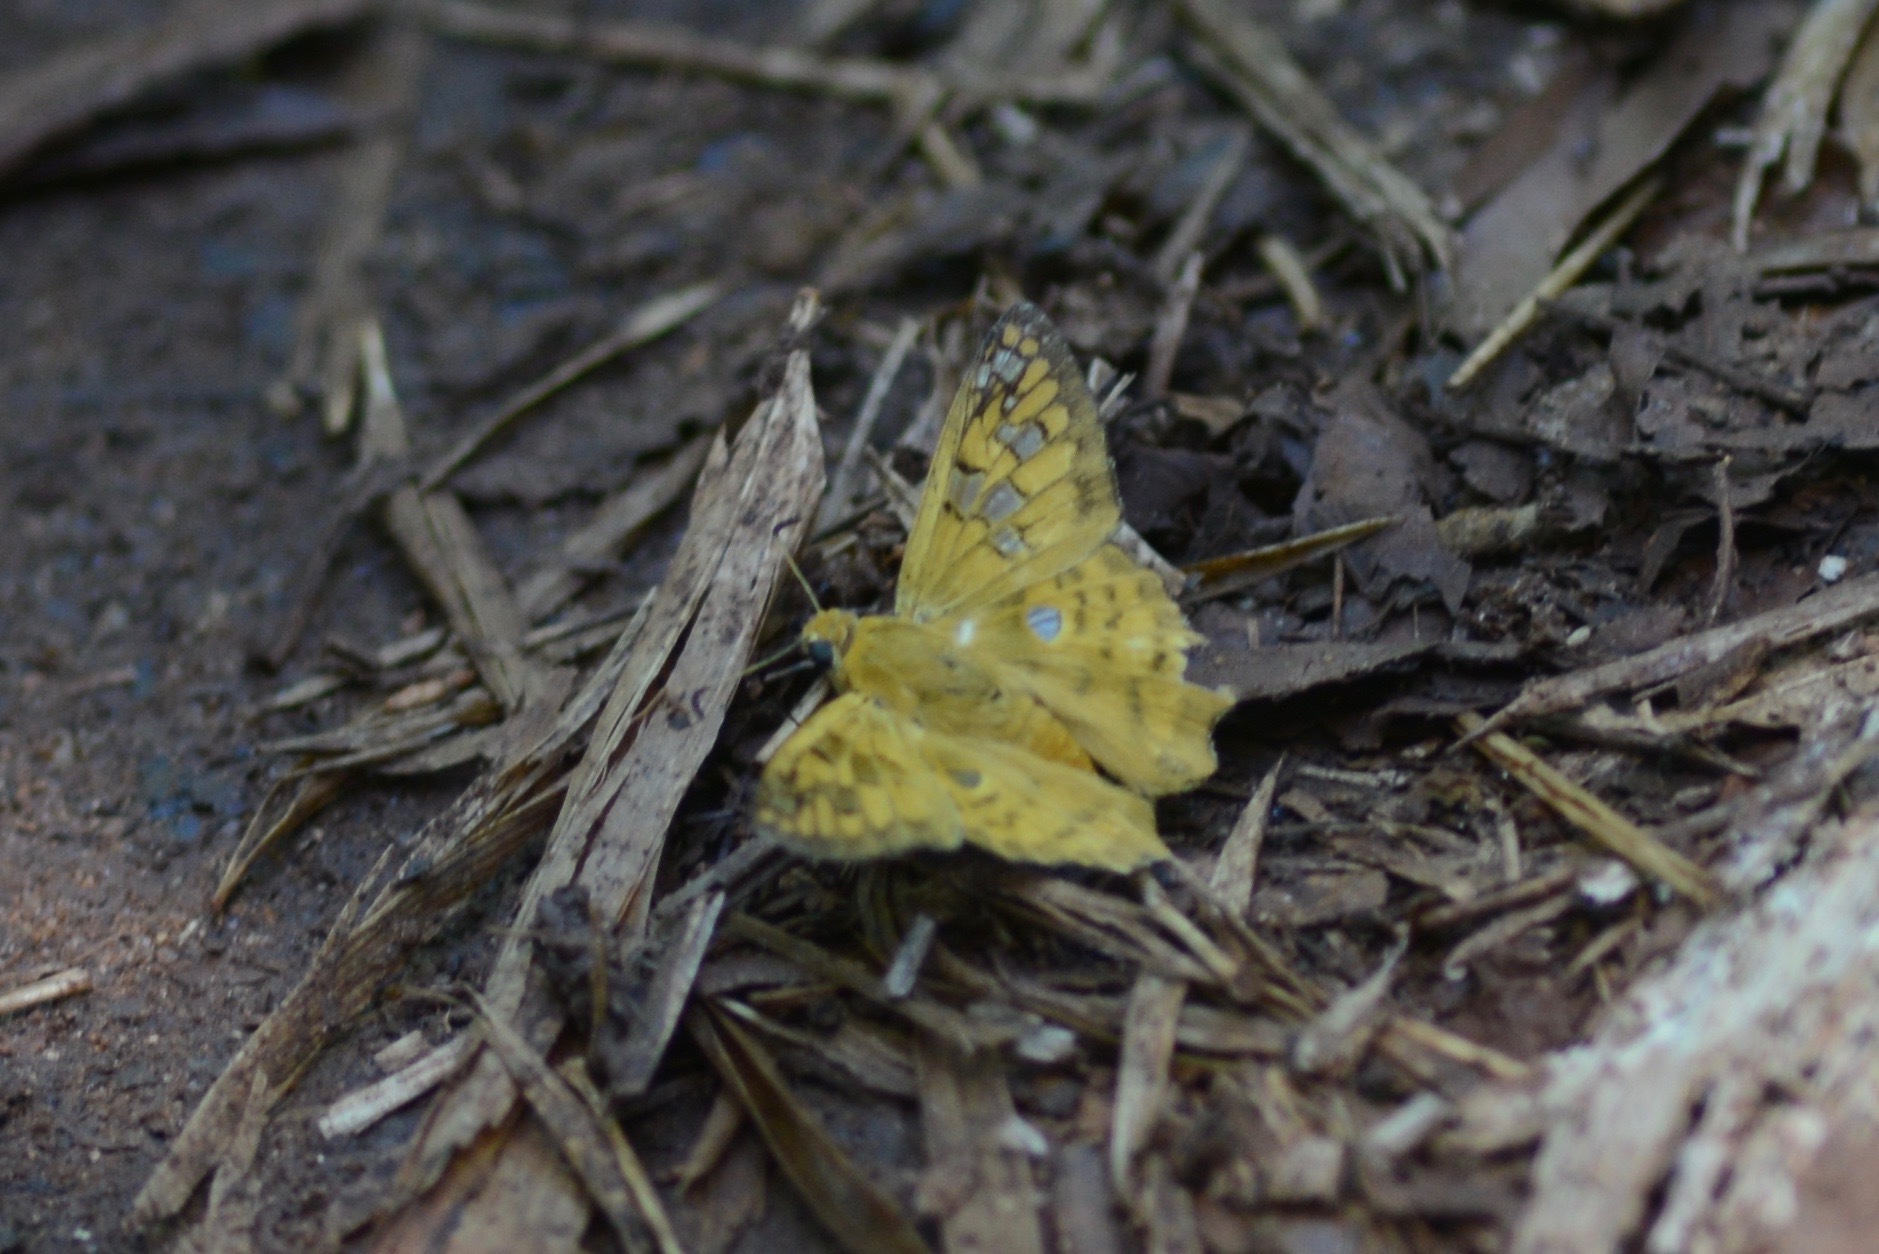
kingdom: Animalia
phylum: Arthropoda
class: Insecta
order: Lepidoptera
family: Hesperiidae
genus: Myscelus
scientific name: Myscelus amystis
